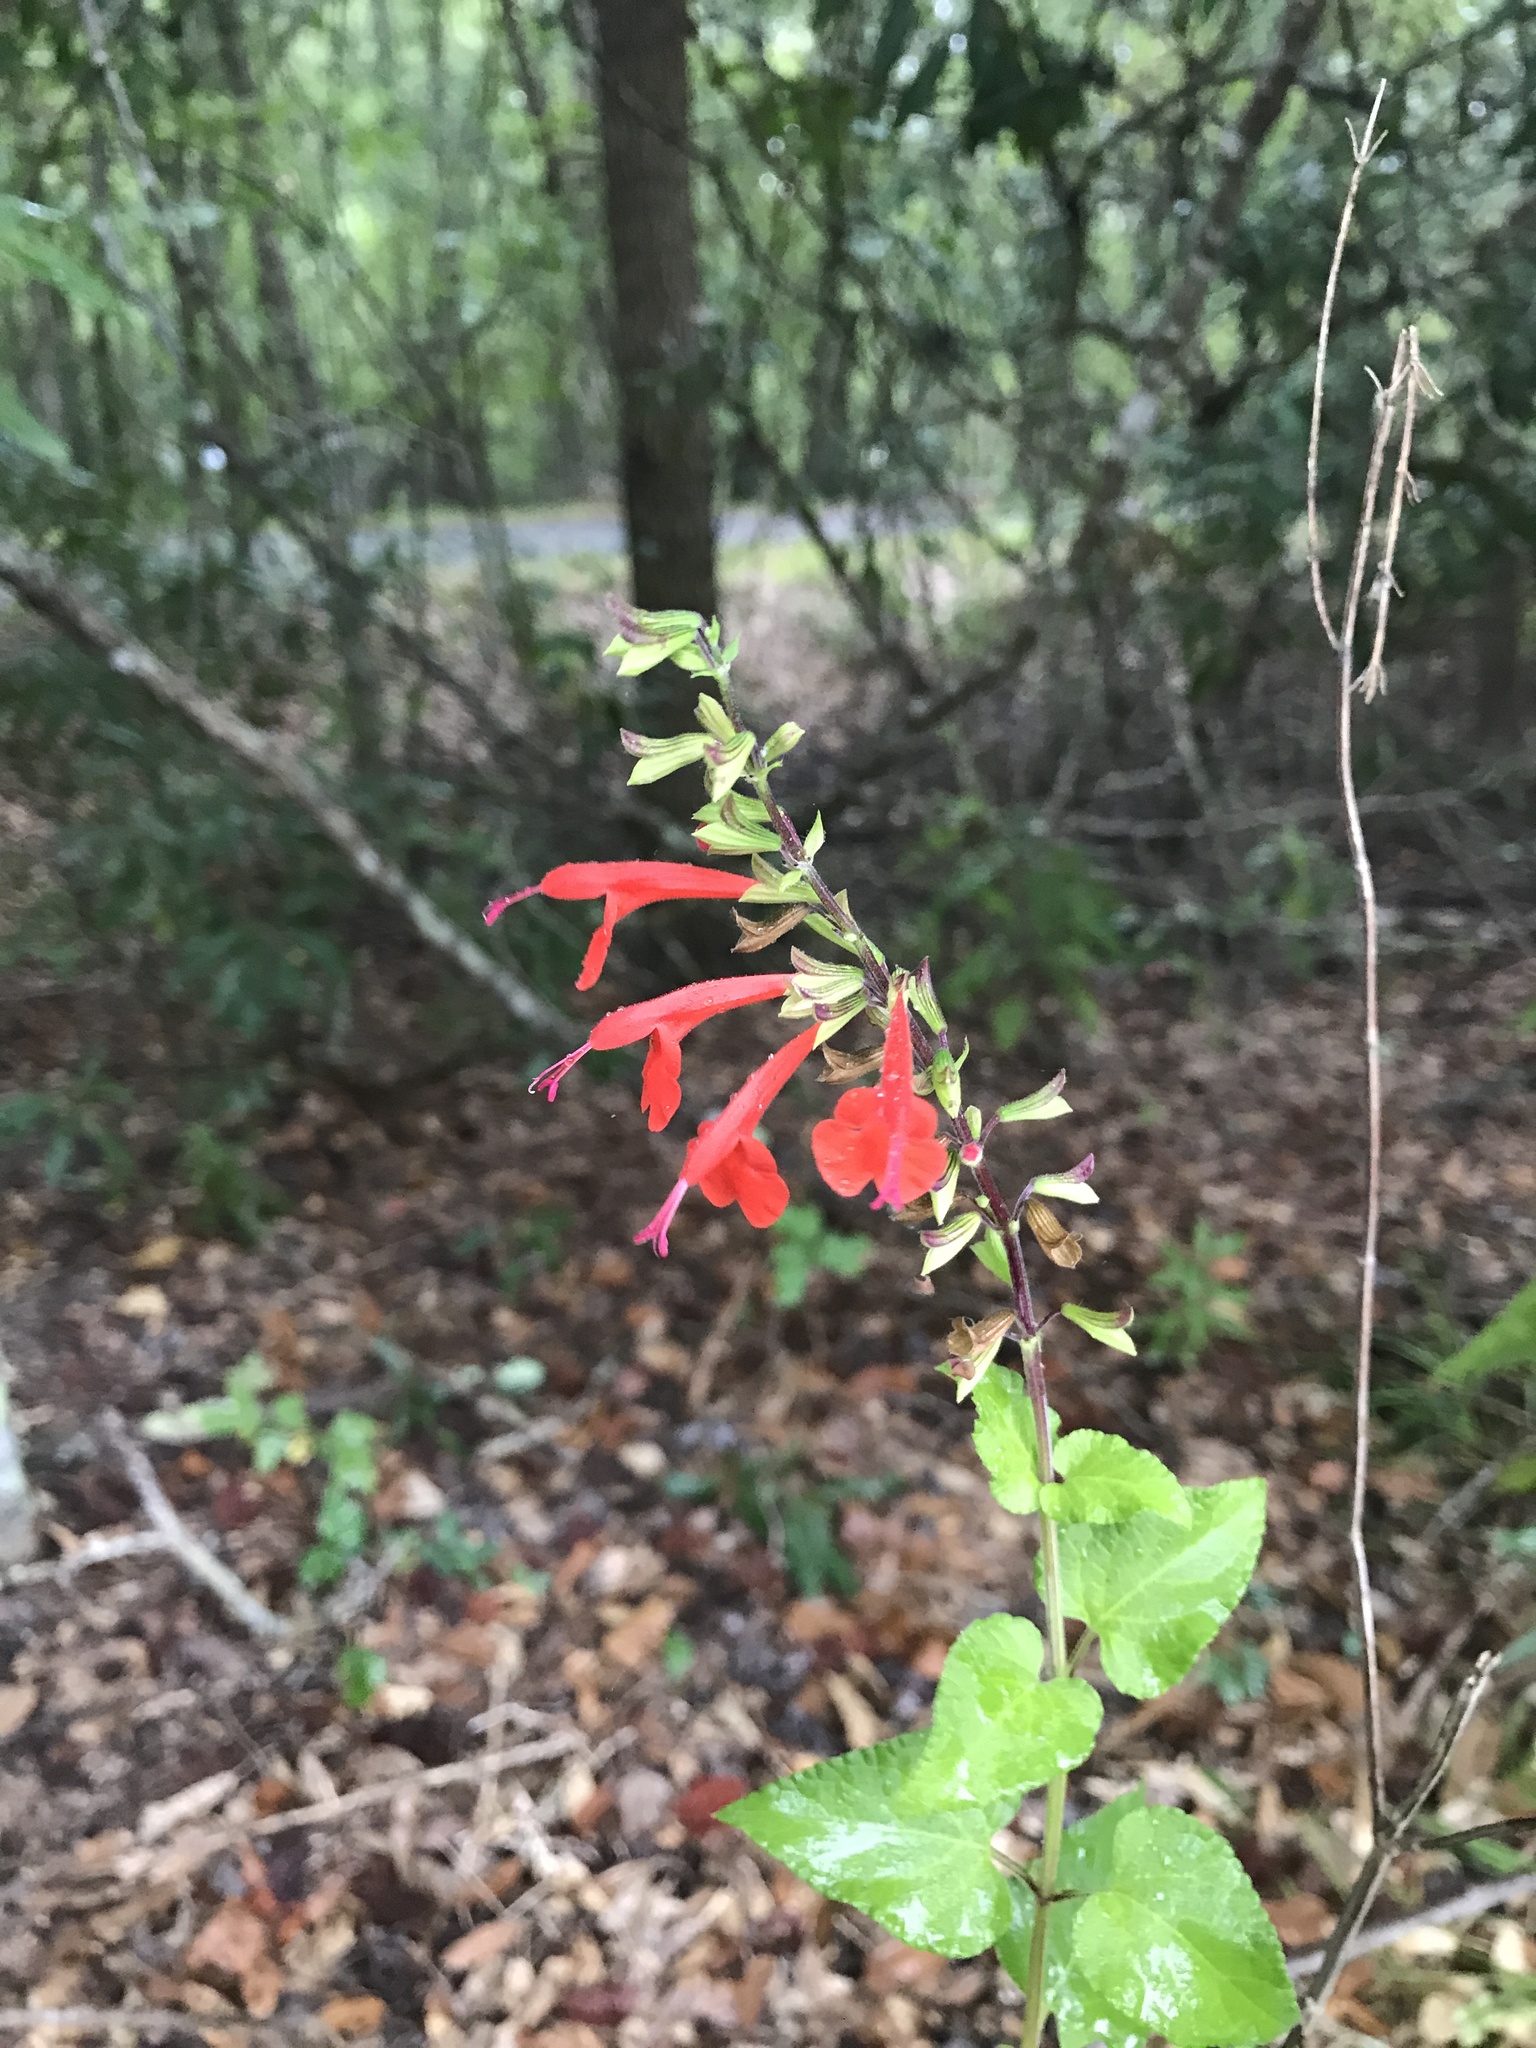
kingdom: Plantae
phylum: Tracheophyta
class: Magnoliopsida
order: Lamiales
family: Lamiaceae
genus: Salvia
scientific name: Salvia coccinea
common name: Blood sage
